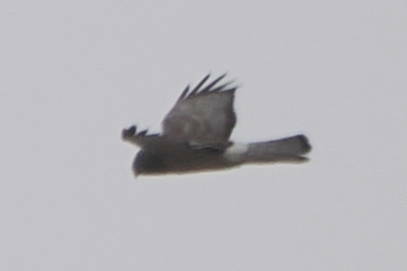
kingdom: Animalia
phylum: Chordata
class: Aves
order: Accipitriformes
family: Accipitridae
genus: Circus
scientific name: Circus cyaneus
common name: Hen harrier
